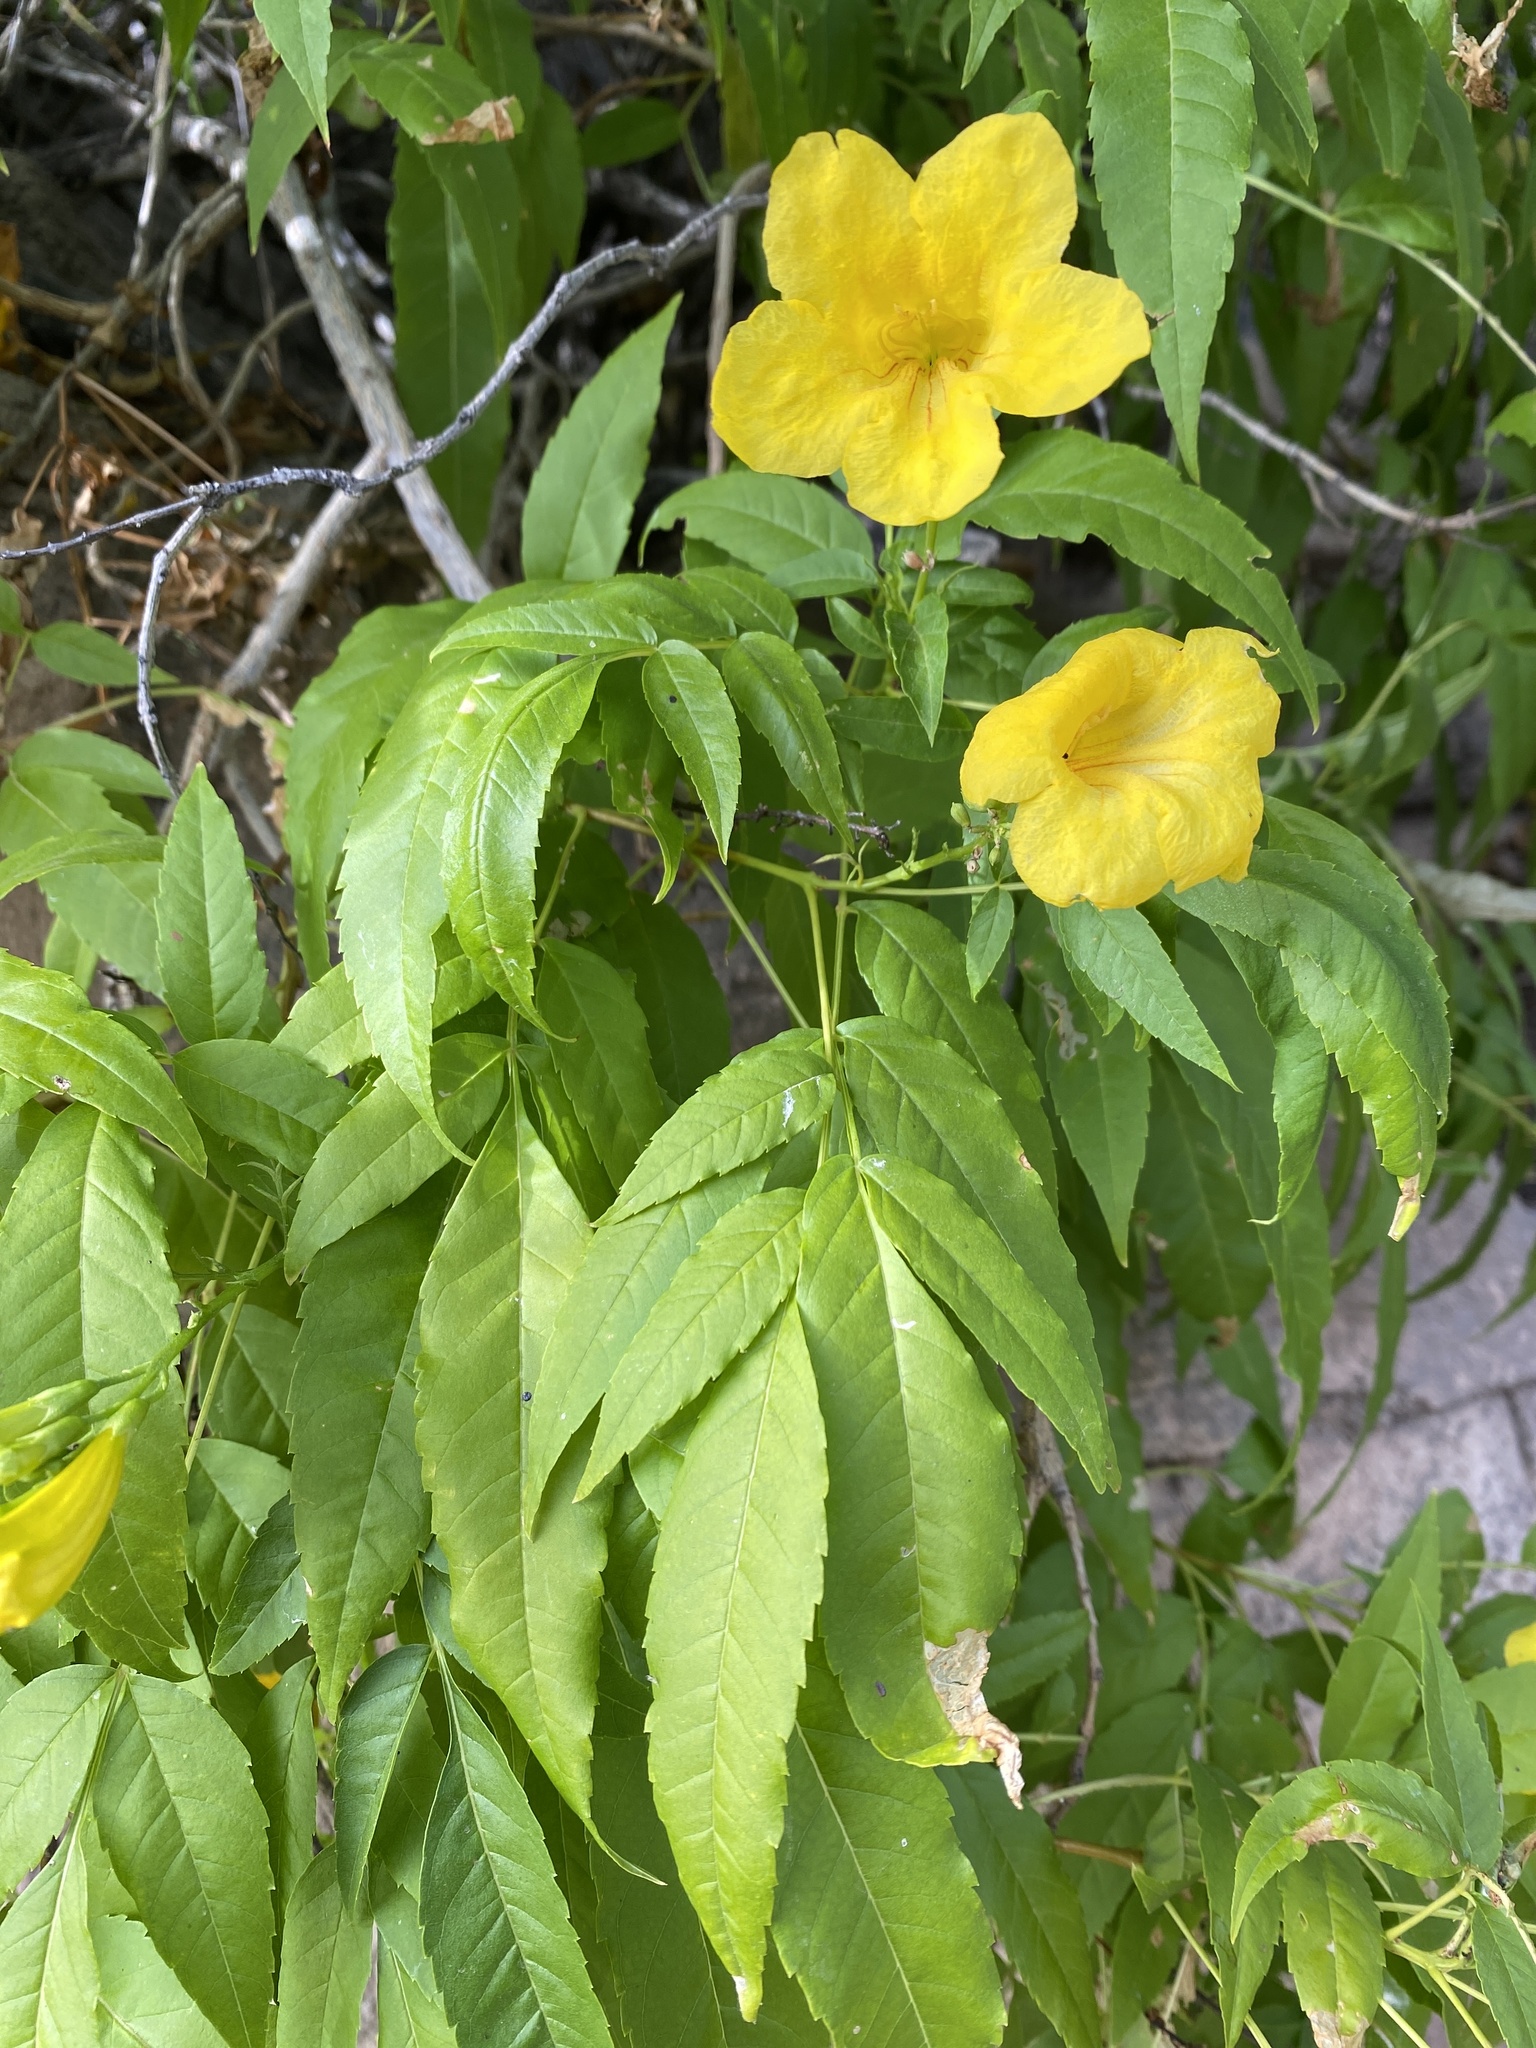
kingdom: Plantae
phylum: Tracheophyta
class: Magnoliopsida
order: Lamiales
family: Bignoniaceae
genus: Tecoma
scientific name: Tecoma stans
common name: Yellow trumpetbush
